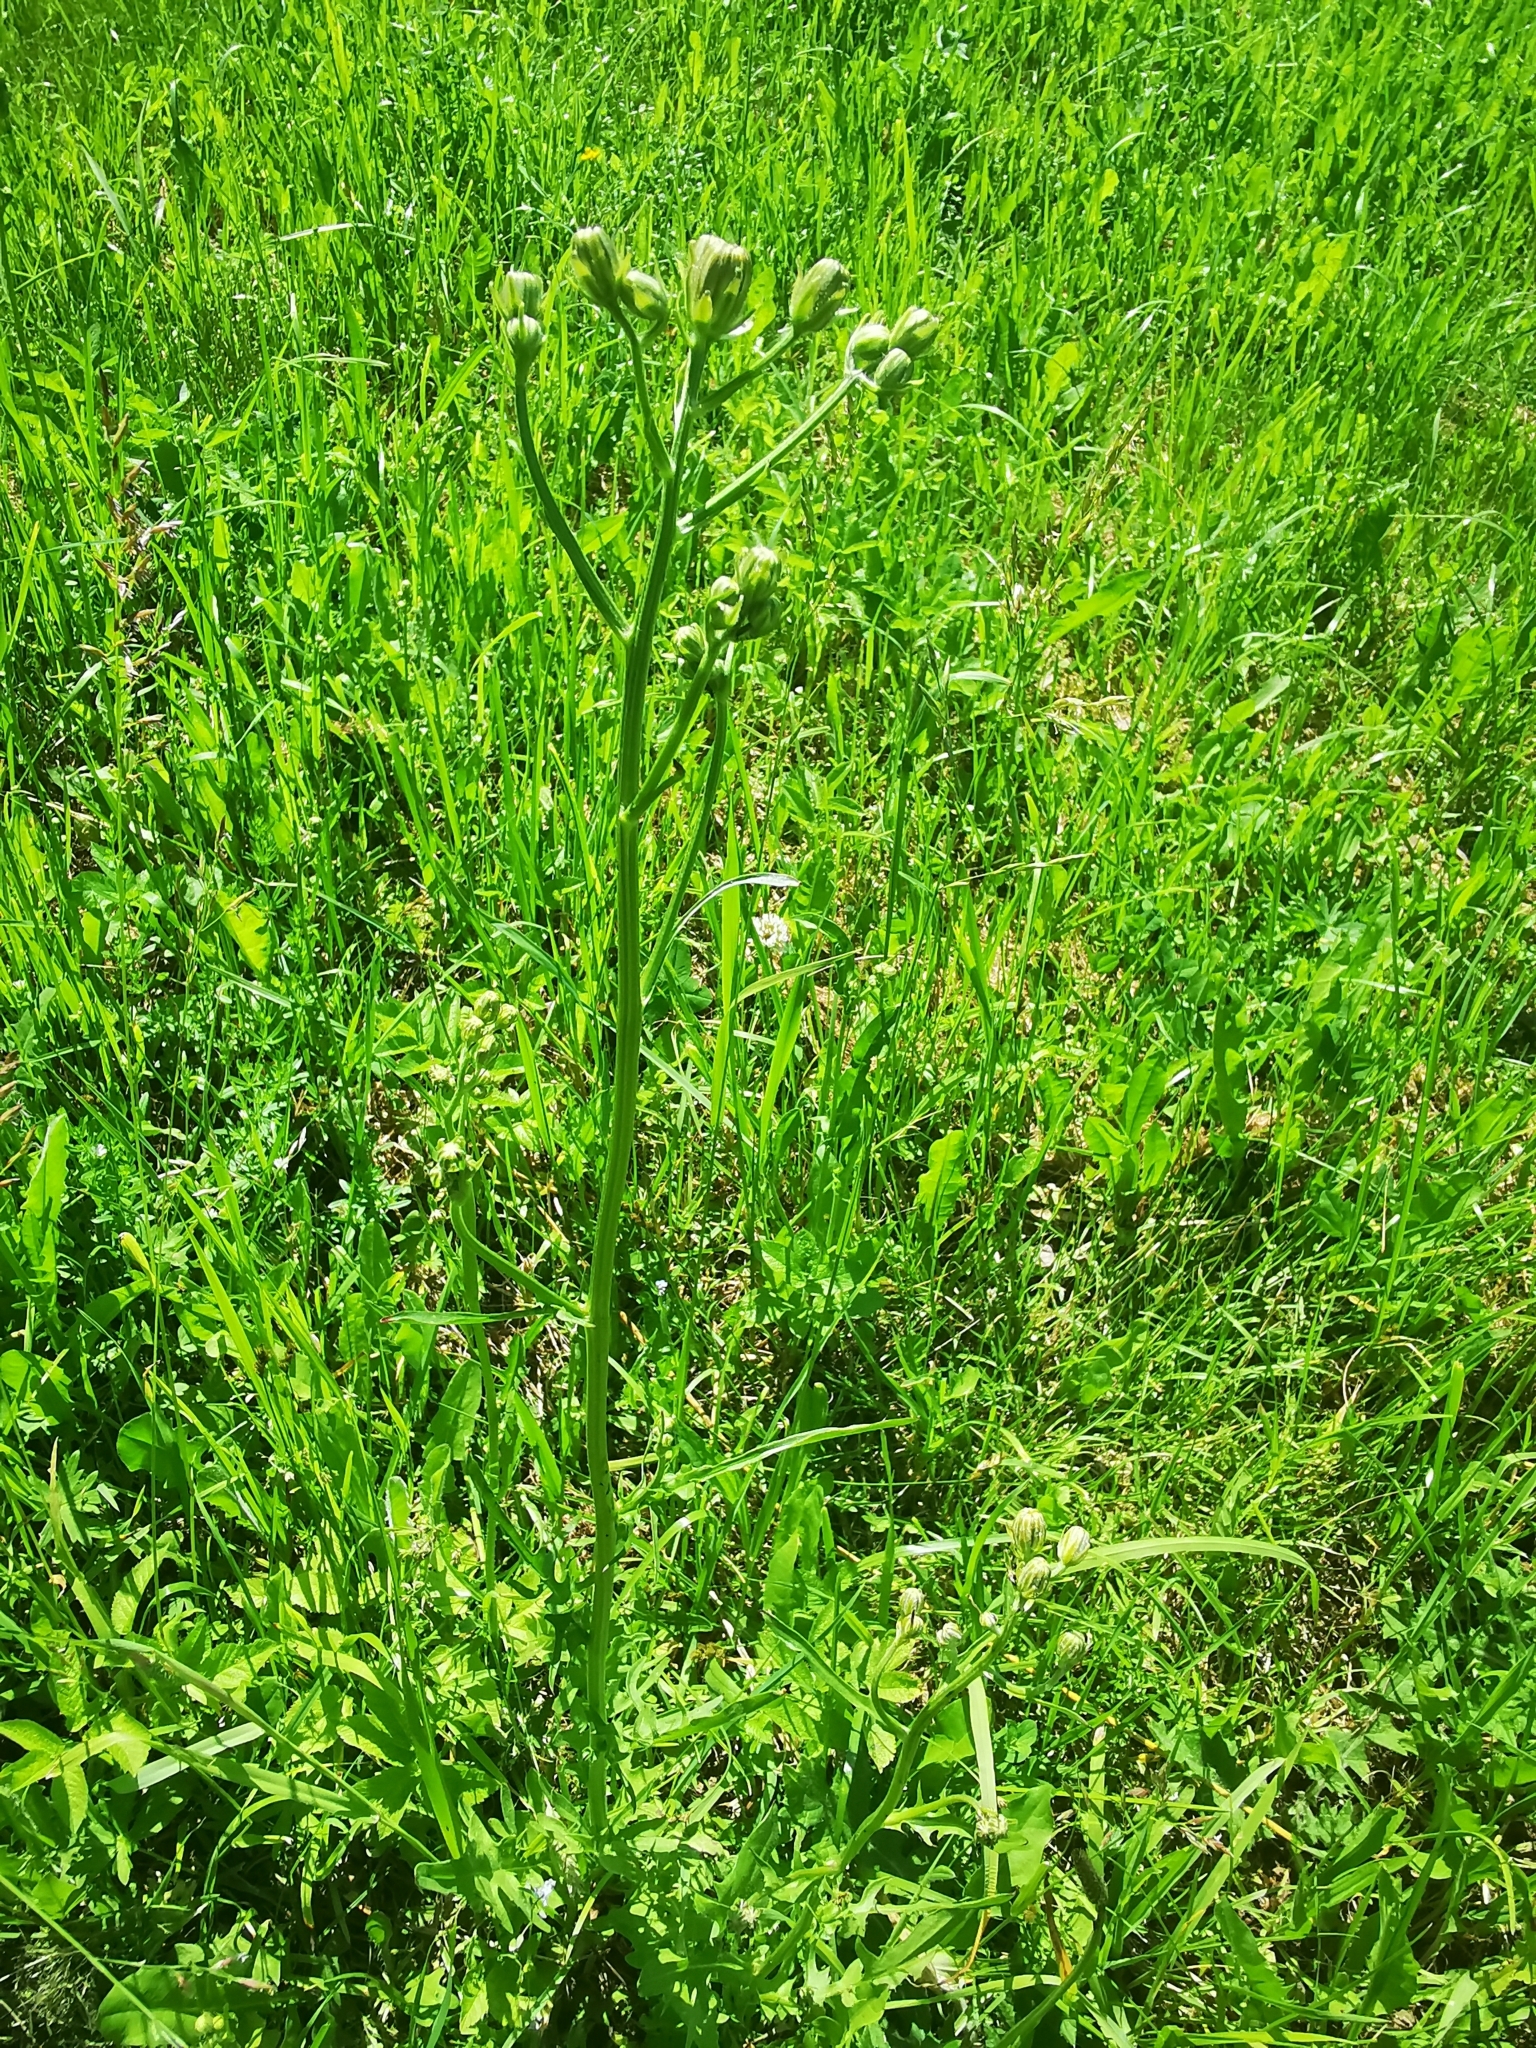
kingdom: Plantae
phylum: Tracheophyta
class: Magnoliopsida
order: Asterales
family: Asteraceae
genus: Crepis
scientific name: Crepis biennis
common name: Rough hawk's-beard
